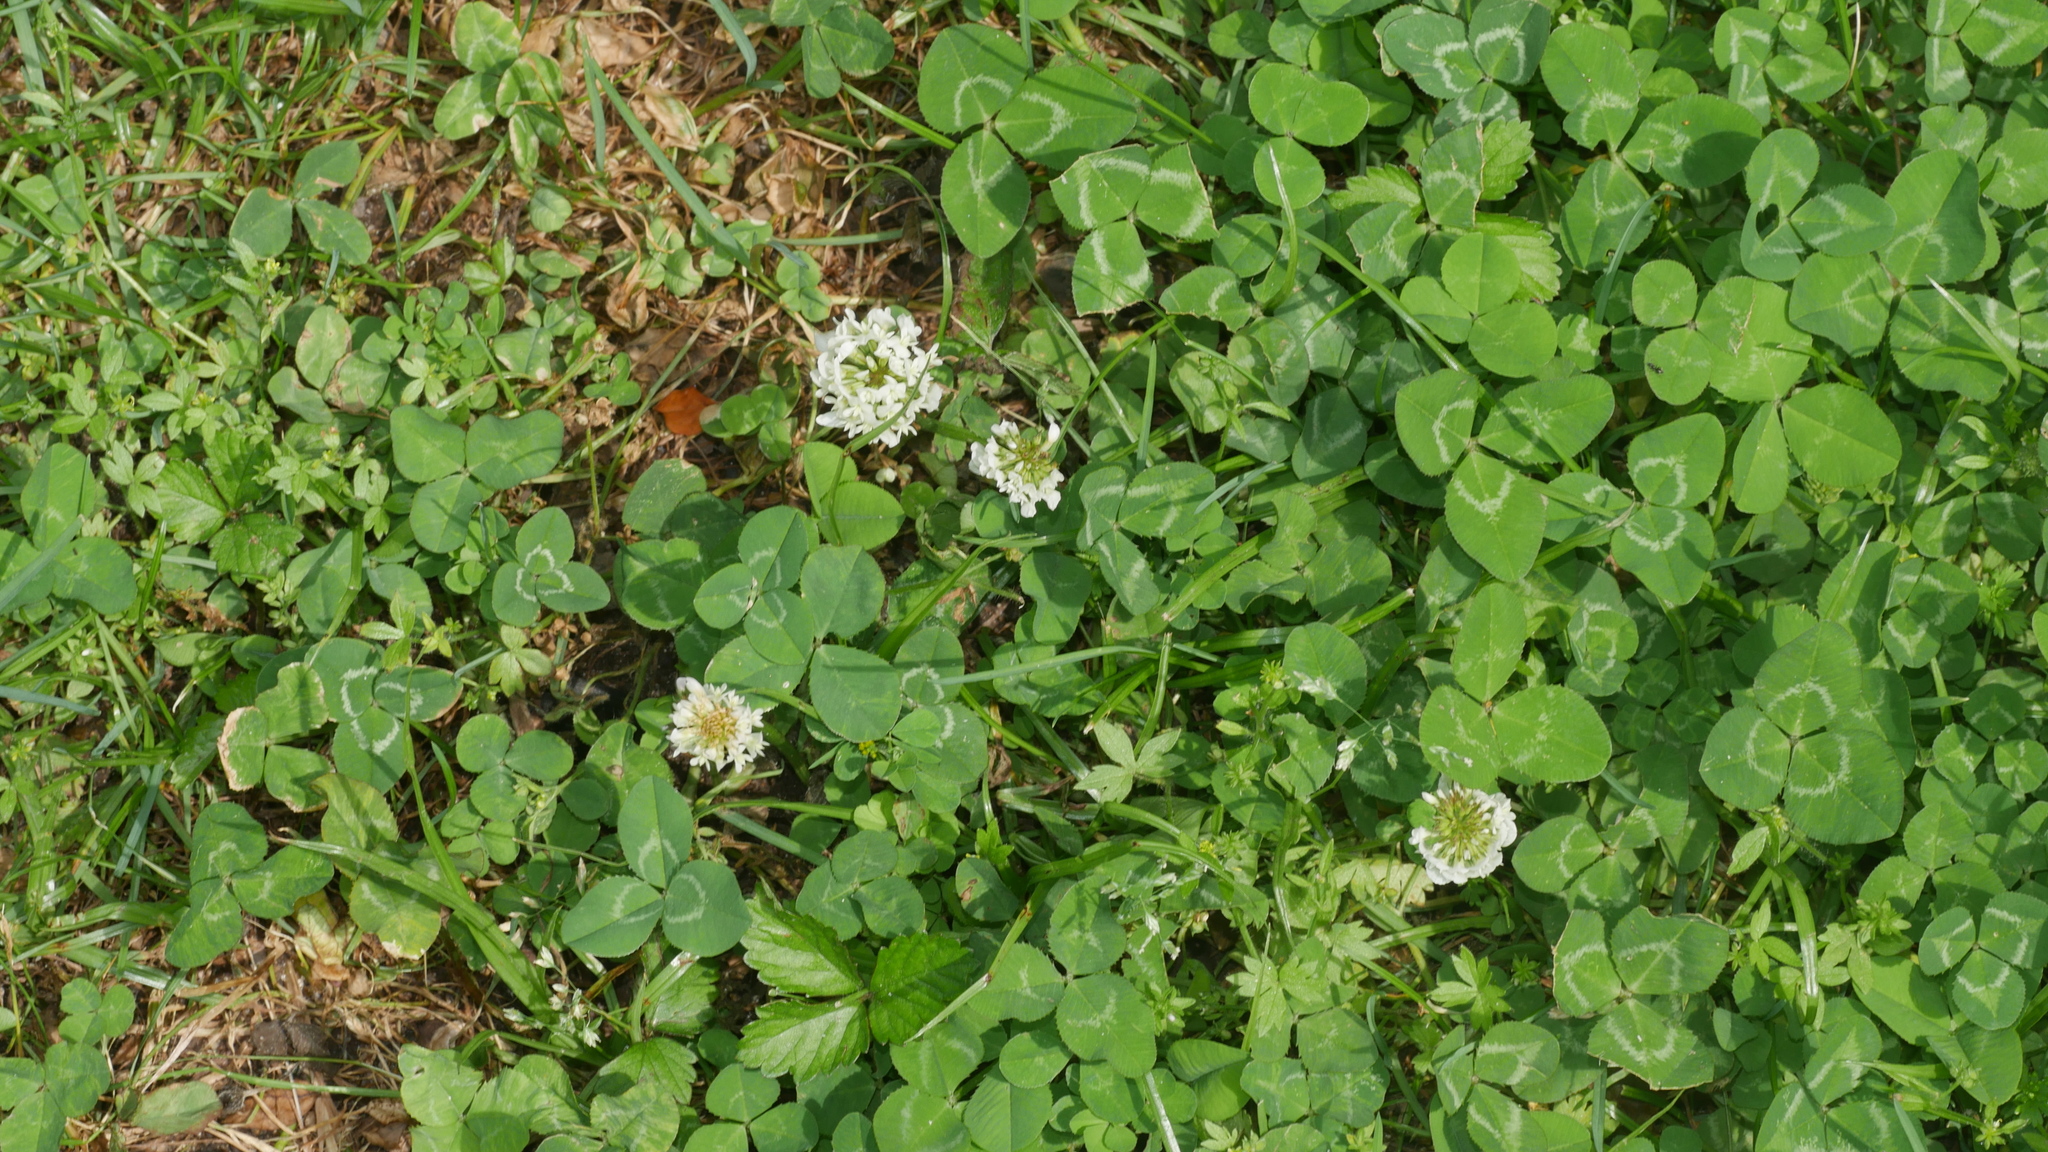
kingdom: Plantae
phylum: Tracheophyta
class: Magnoliopsida
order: Fabales
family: Fabaceae
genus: Trifolium
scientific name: Trifolium repens
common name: White clover
